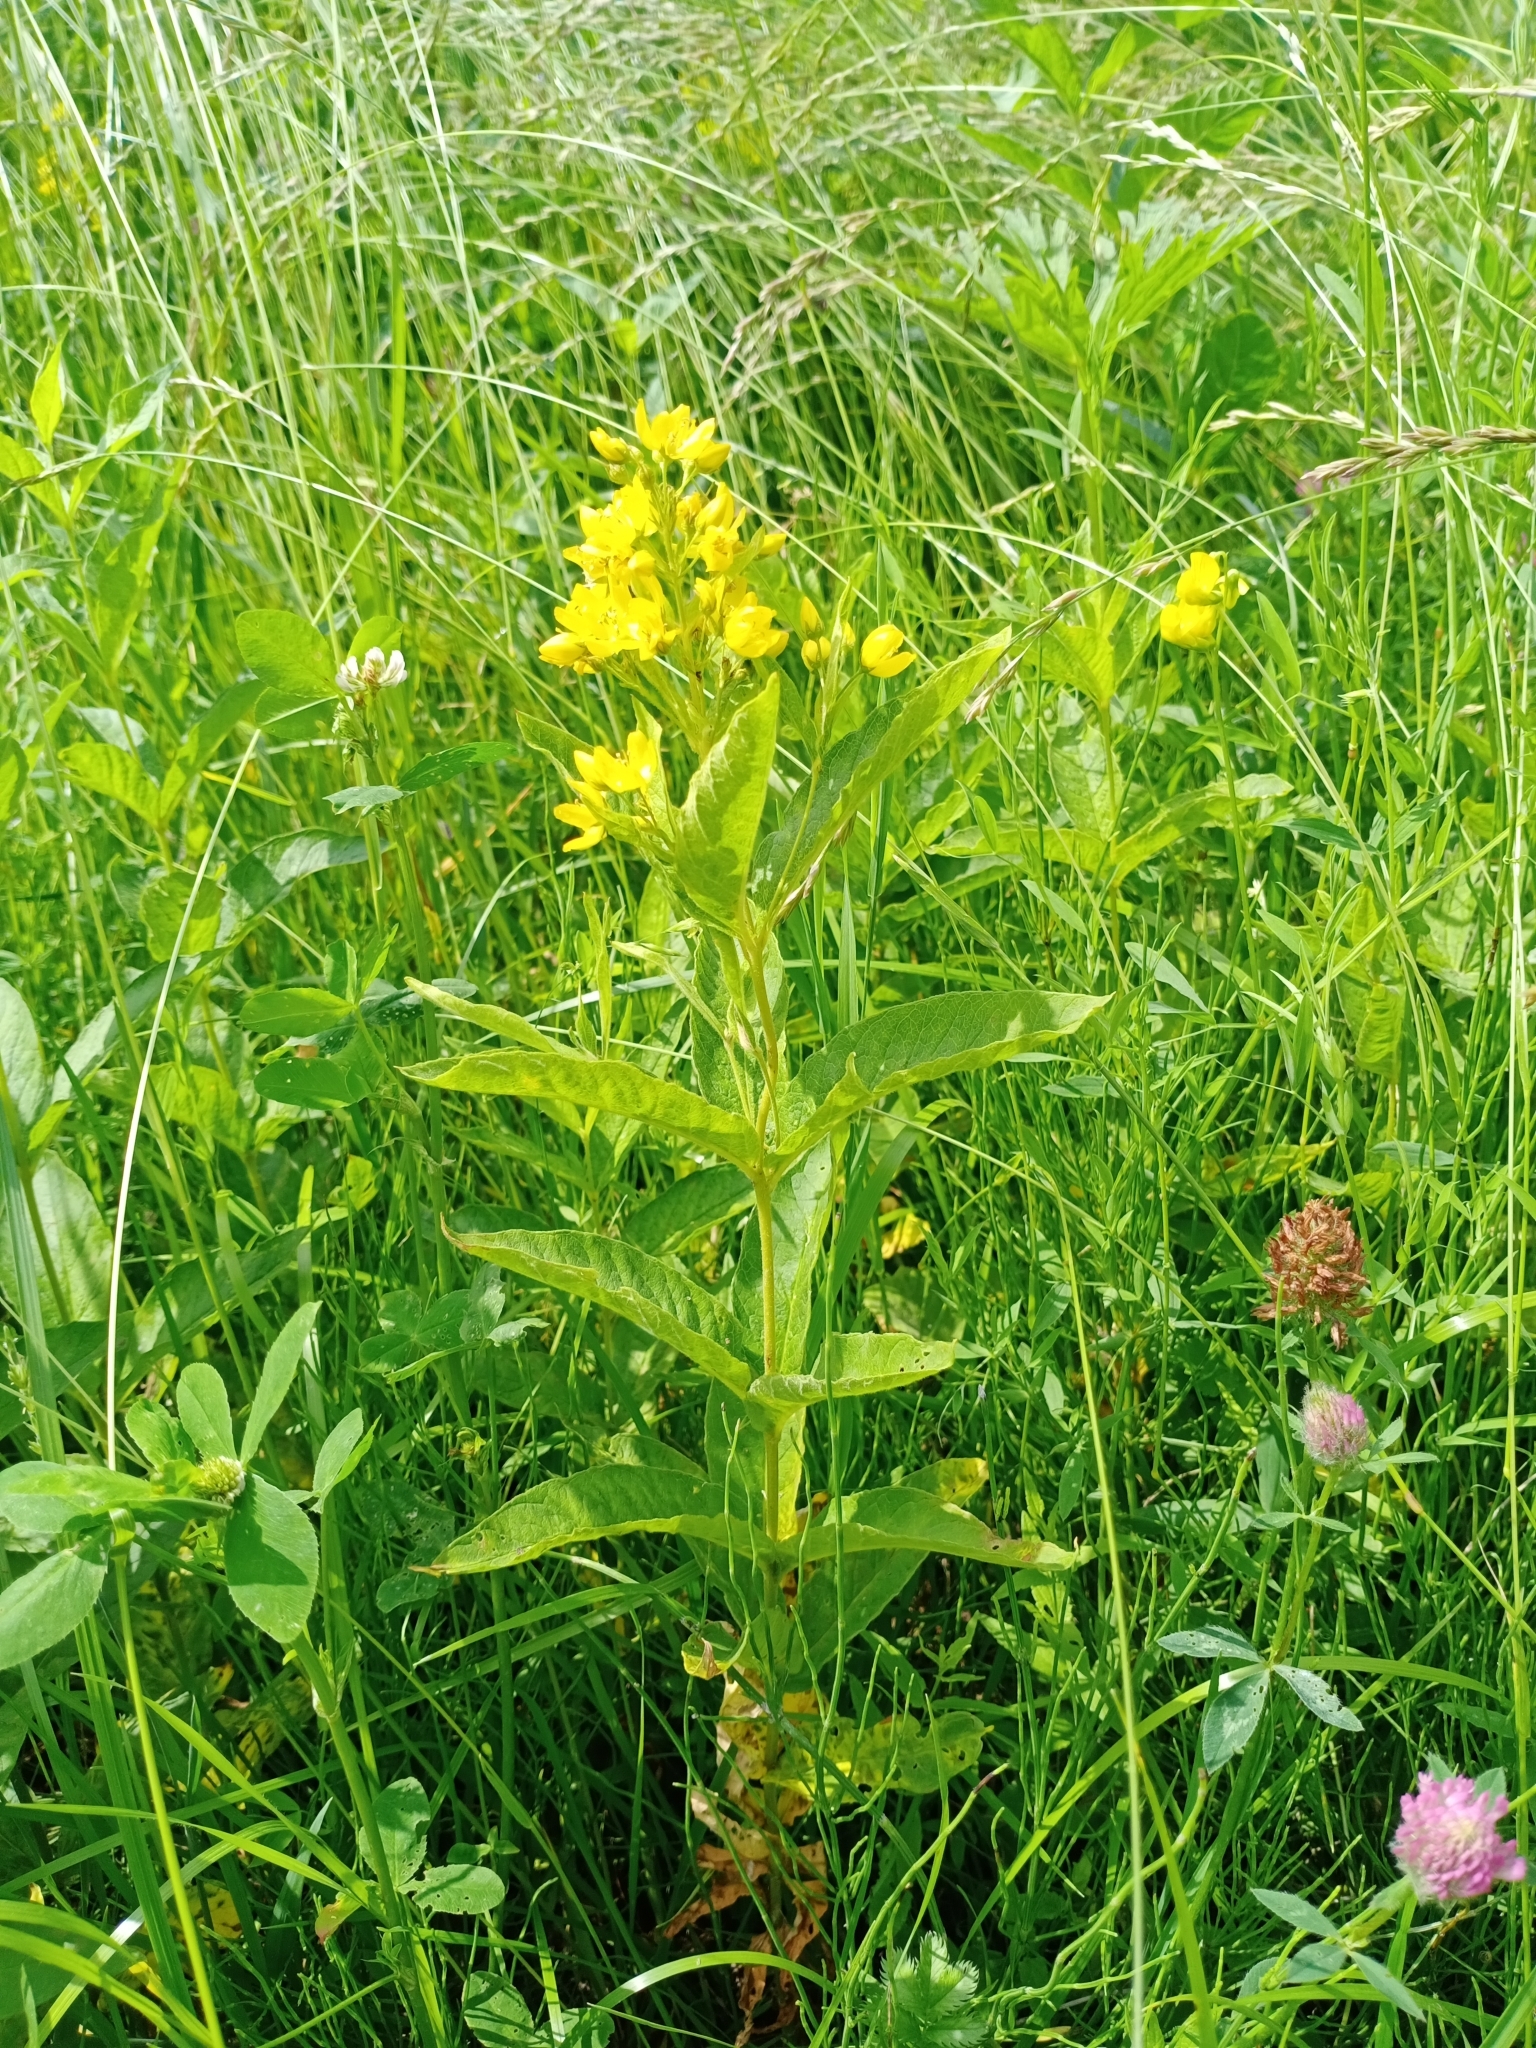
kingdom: Plantae
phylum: Tracheophyta
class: Magnoliopsida
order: Ericales
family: Primulaceae
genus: Lysimachia
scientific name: Lysimachia vulgaris
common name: Yellow loosestrife
